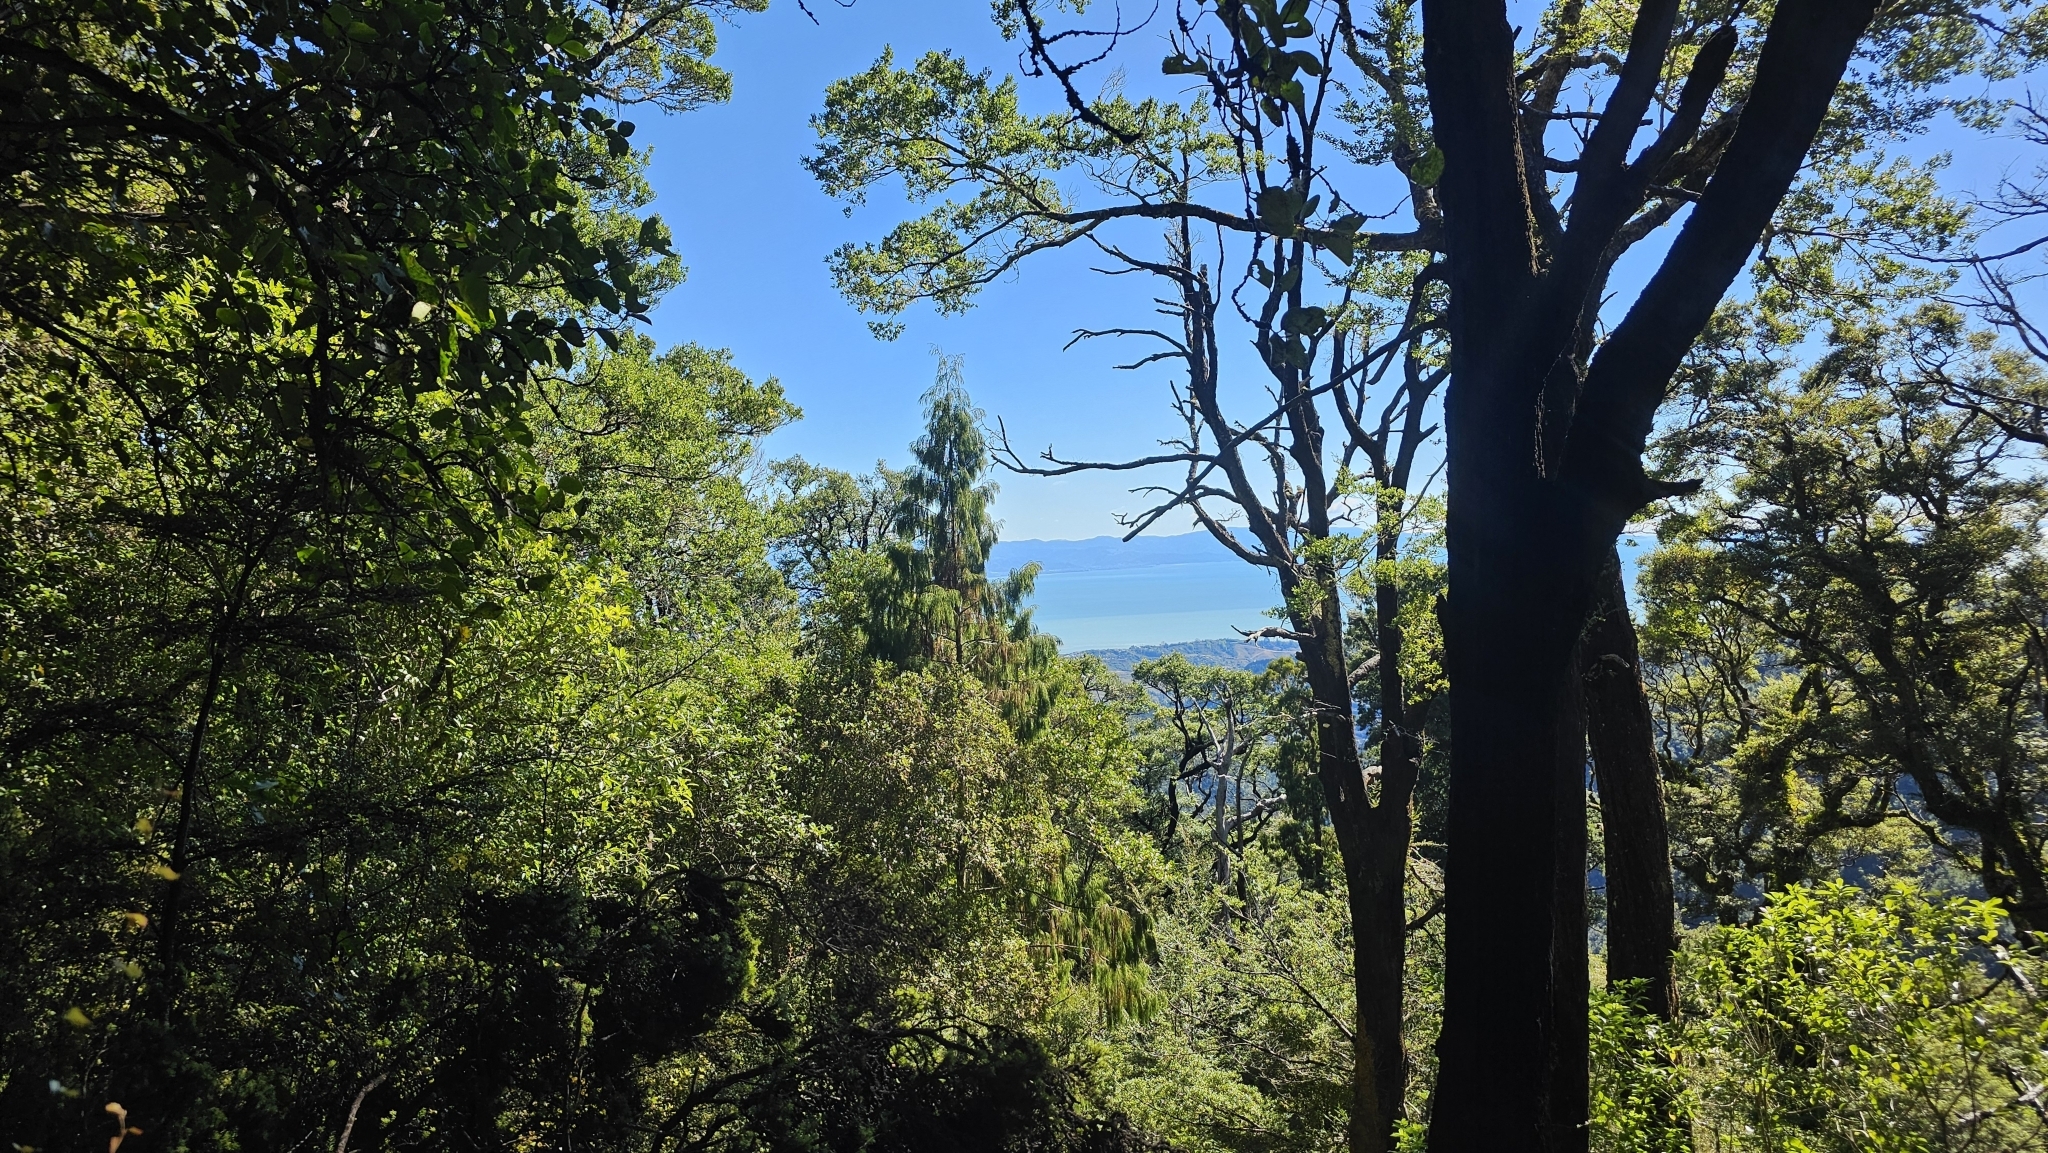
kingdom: Plantae
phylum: Tracheophyta
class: Pinopsida
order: Pinales
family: Podocarpaceae
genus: Dacrydium
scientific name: Dacrydium cupressinum
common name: Red pine
